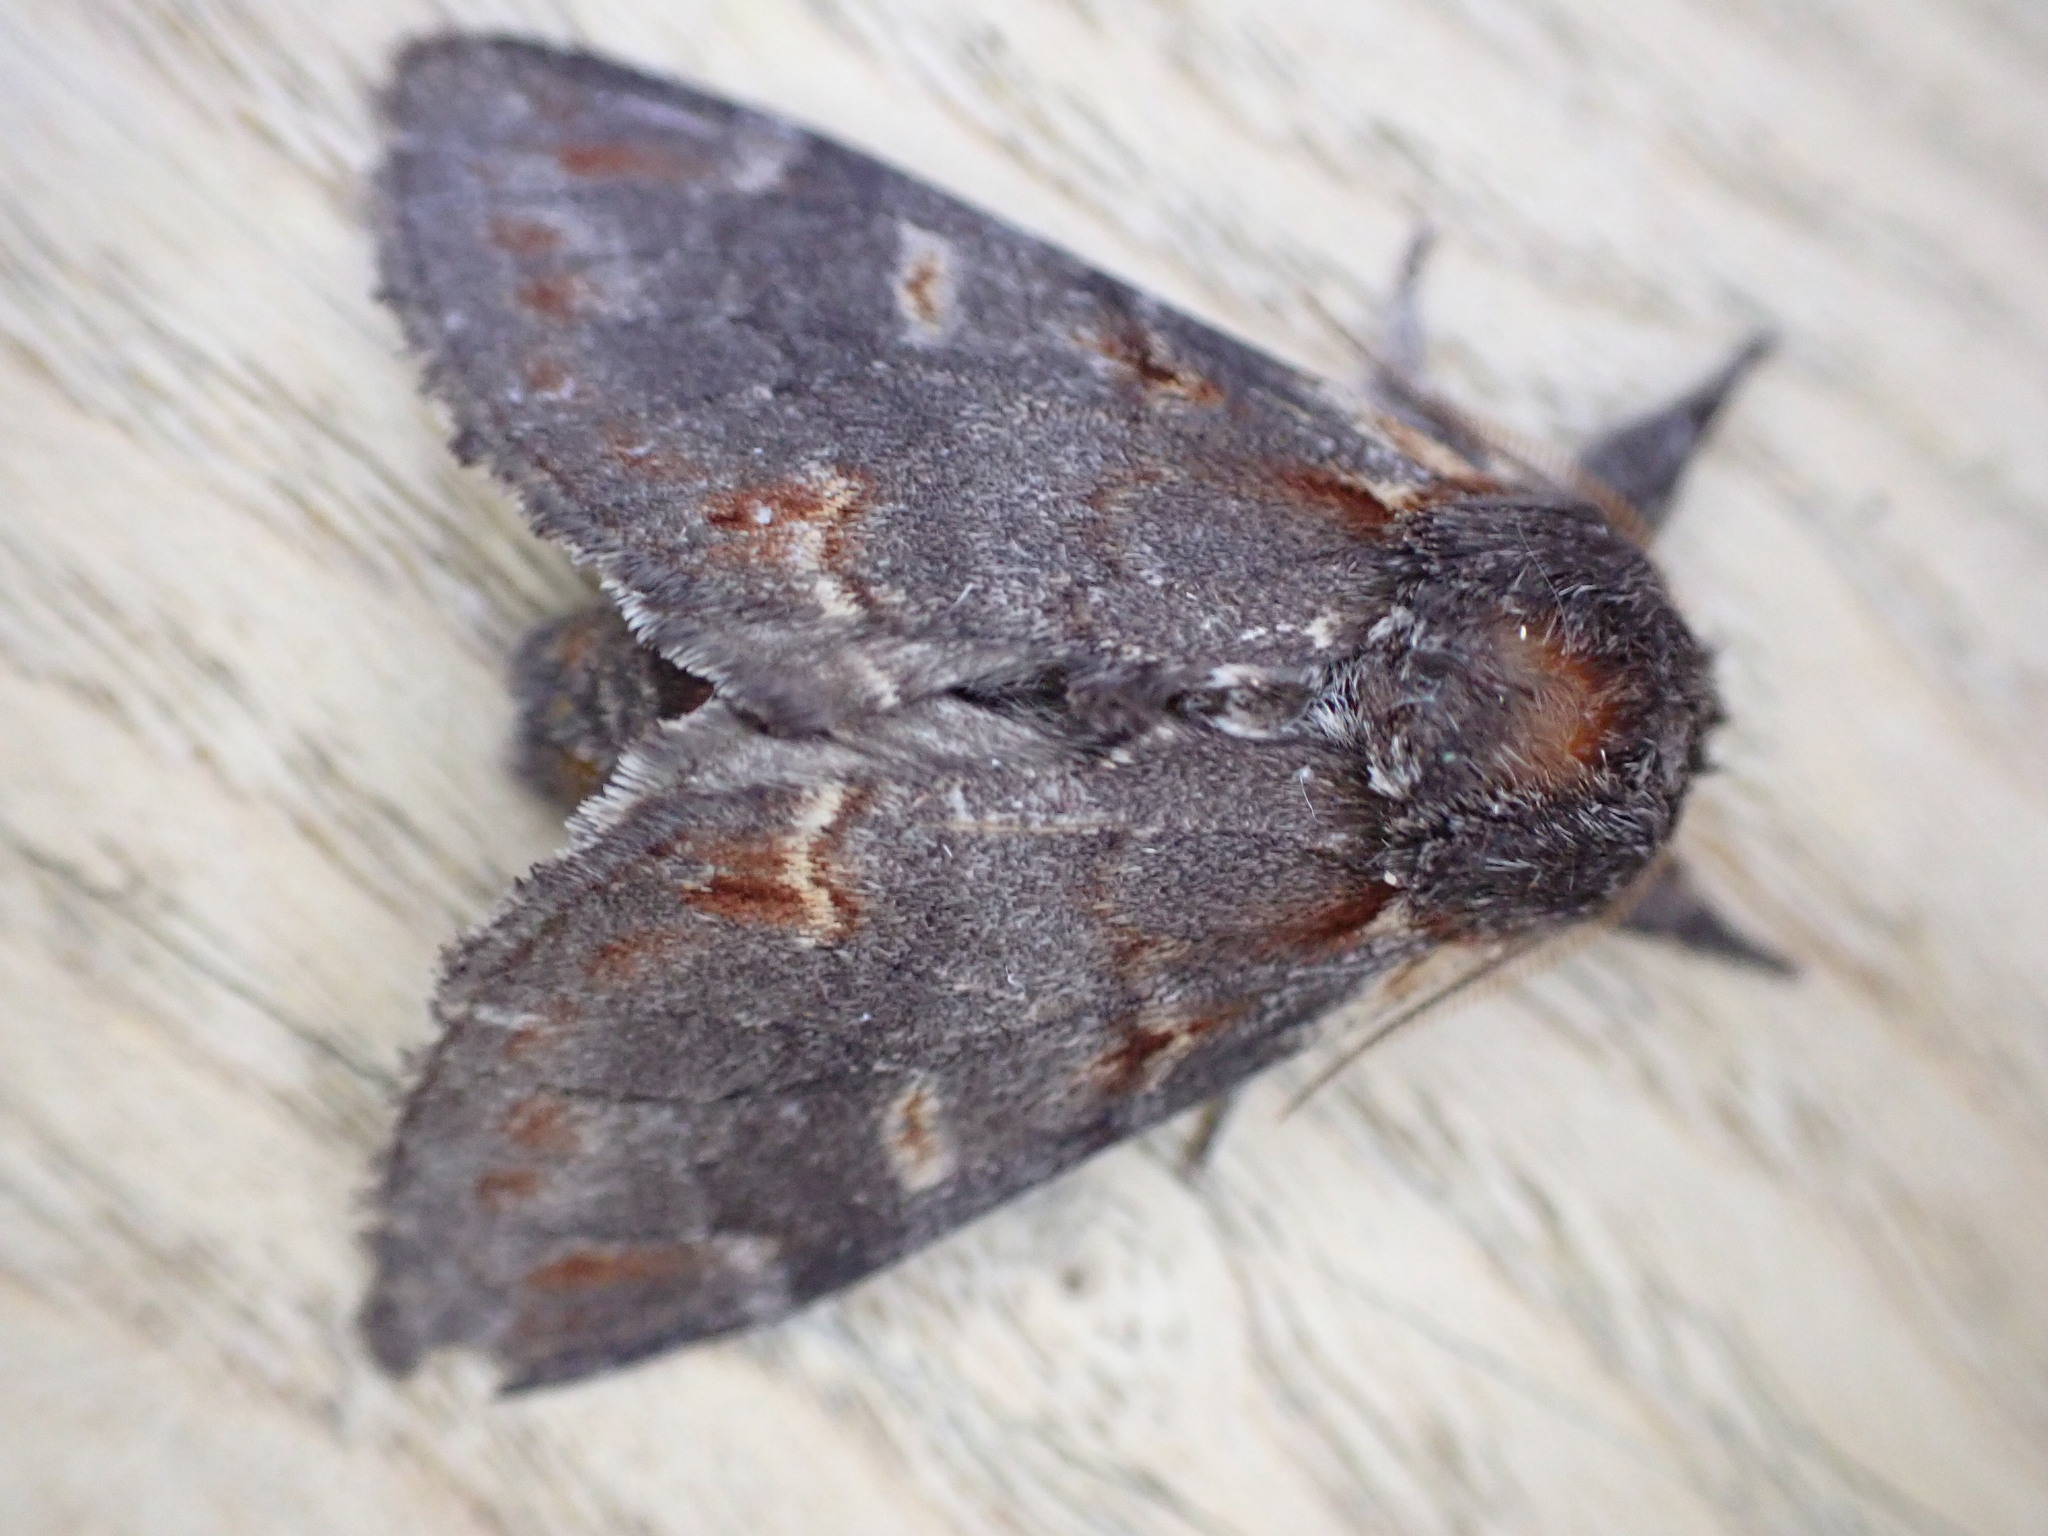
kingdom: Animalia
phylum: Arthropoda
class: Insecta
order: Lepidoptera
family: Notodontidae
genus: Notodonta
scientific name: Notodonta dromedarius
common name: Iron prominent
